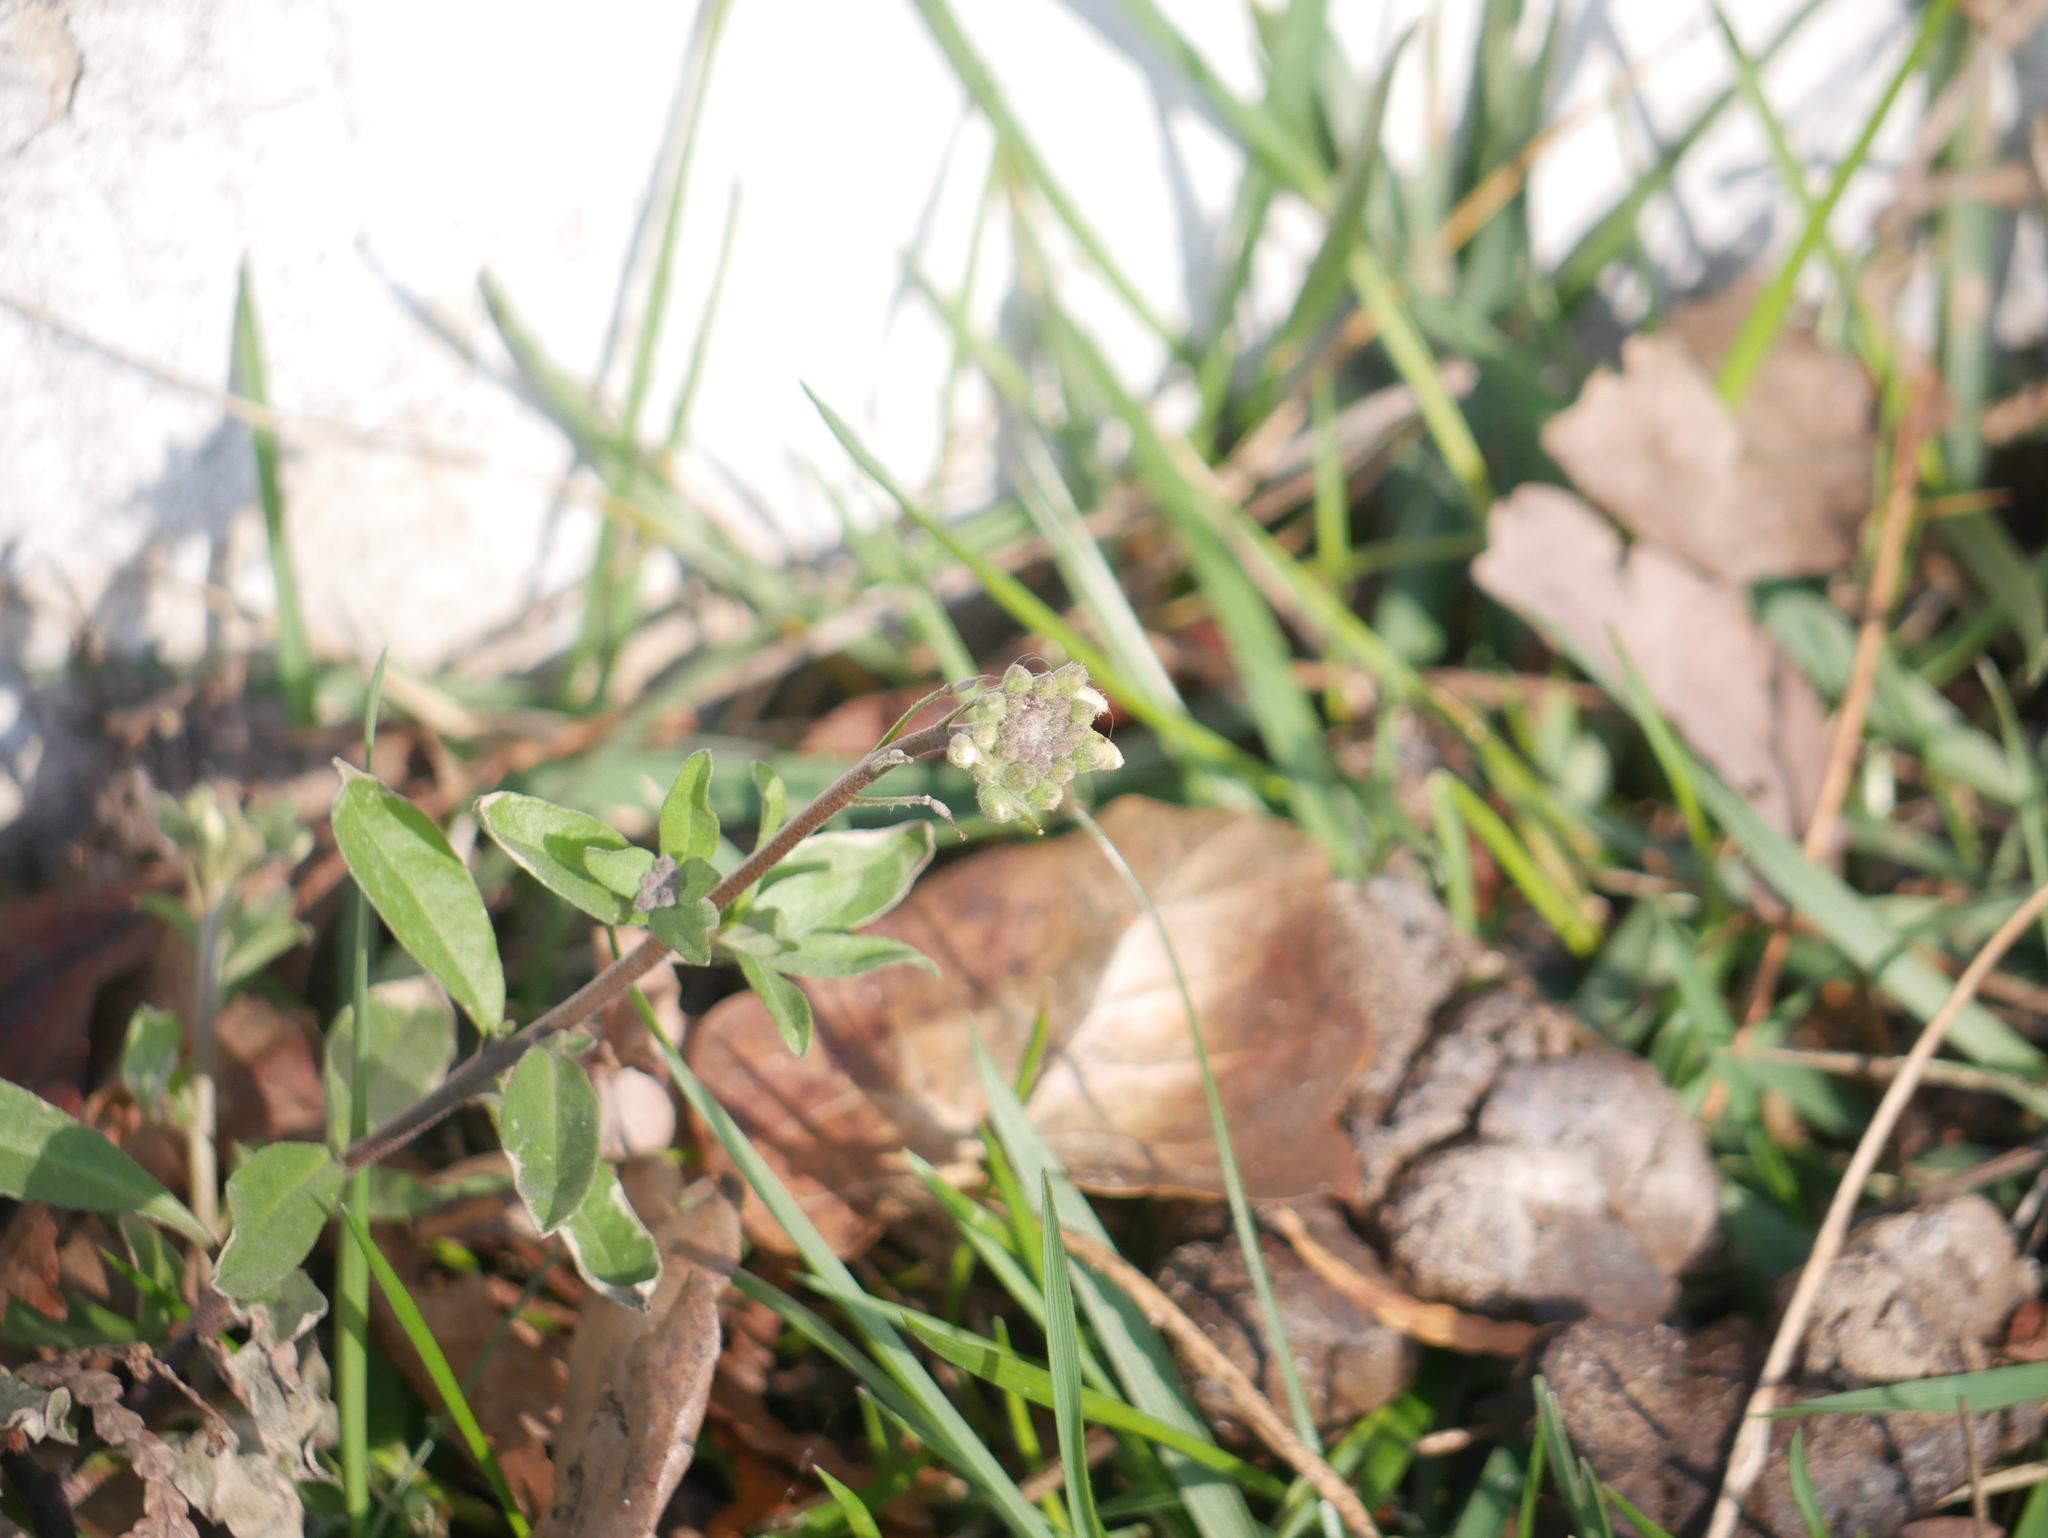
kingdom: Plantae
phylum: Tracheophyta
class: Magnoliopsida
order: Brassicales
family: Brassicaceae
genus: Berteroa
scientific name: Berteroa incana
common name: Hoary alison
